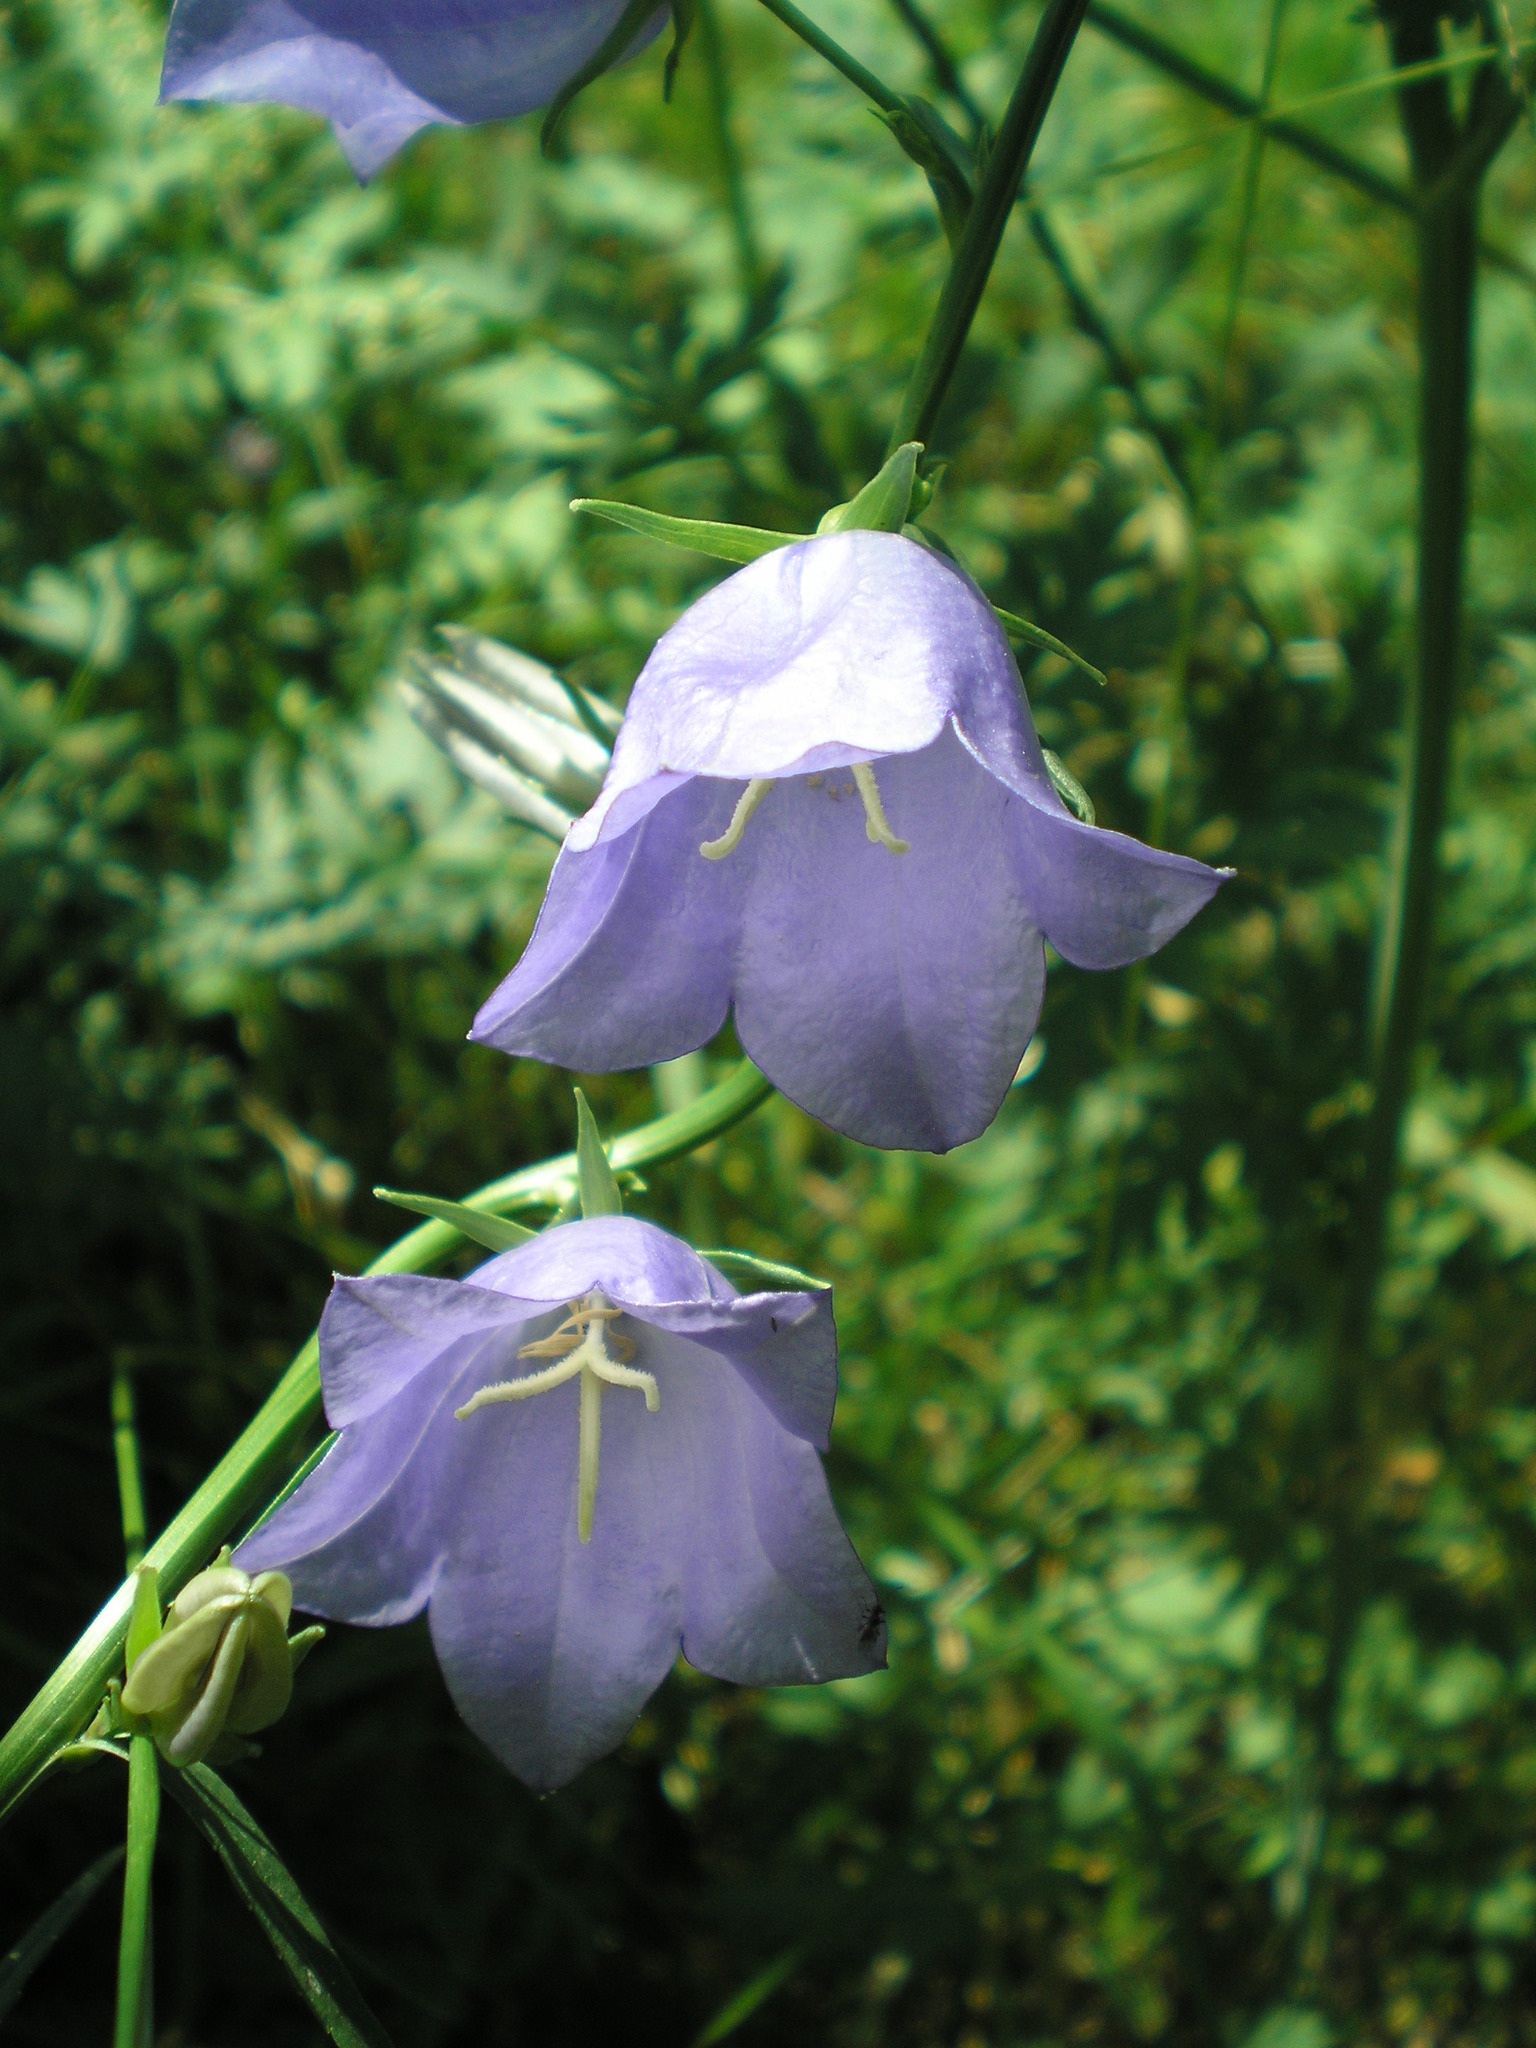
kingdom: Plantae
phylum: Tracheophyta
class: Magnoliopsida
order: Asterales
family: Campanulaceae
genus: Campanula
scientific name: Campanula persicifolia
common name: Peach-leaved bellflower
